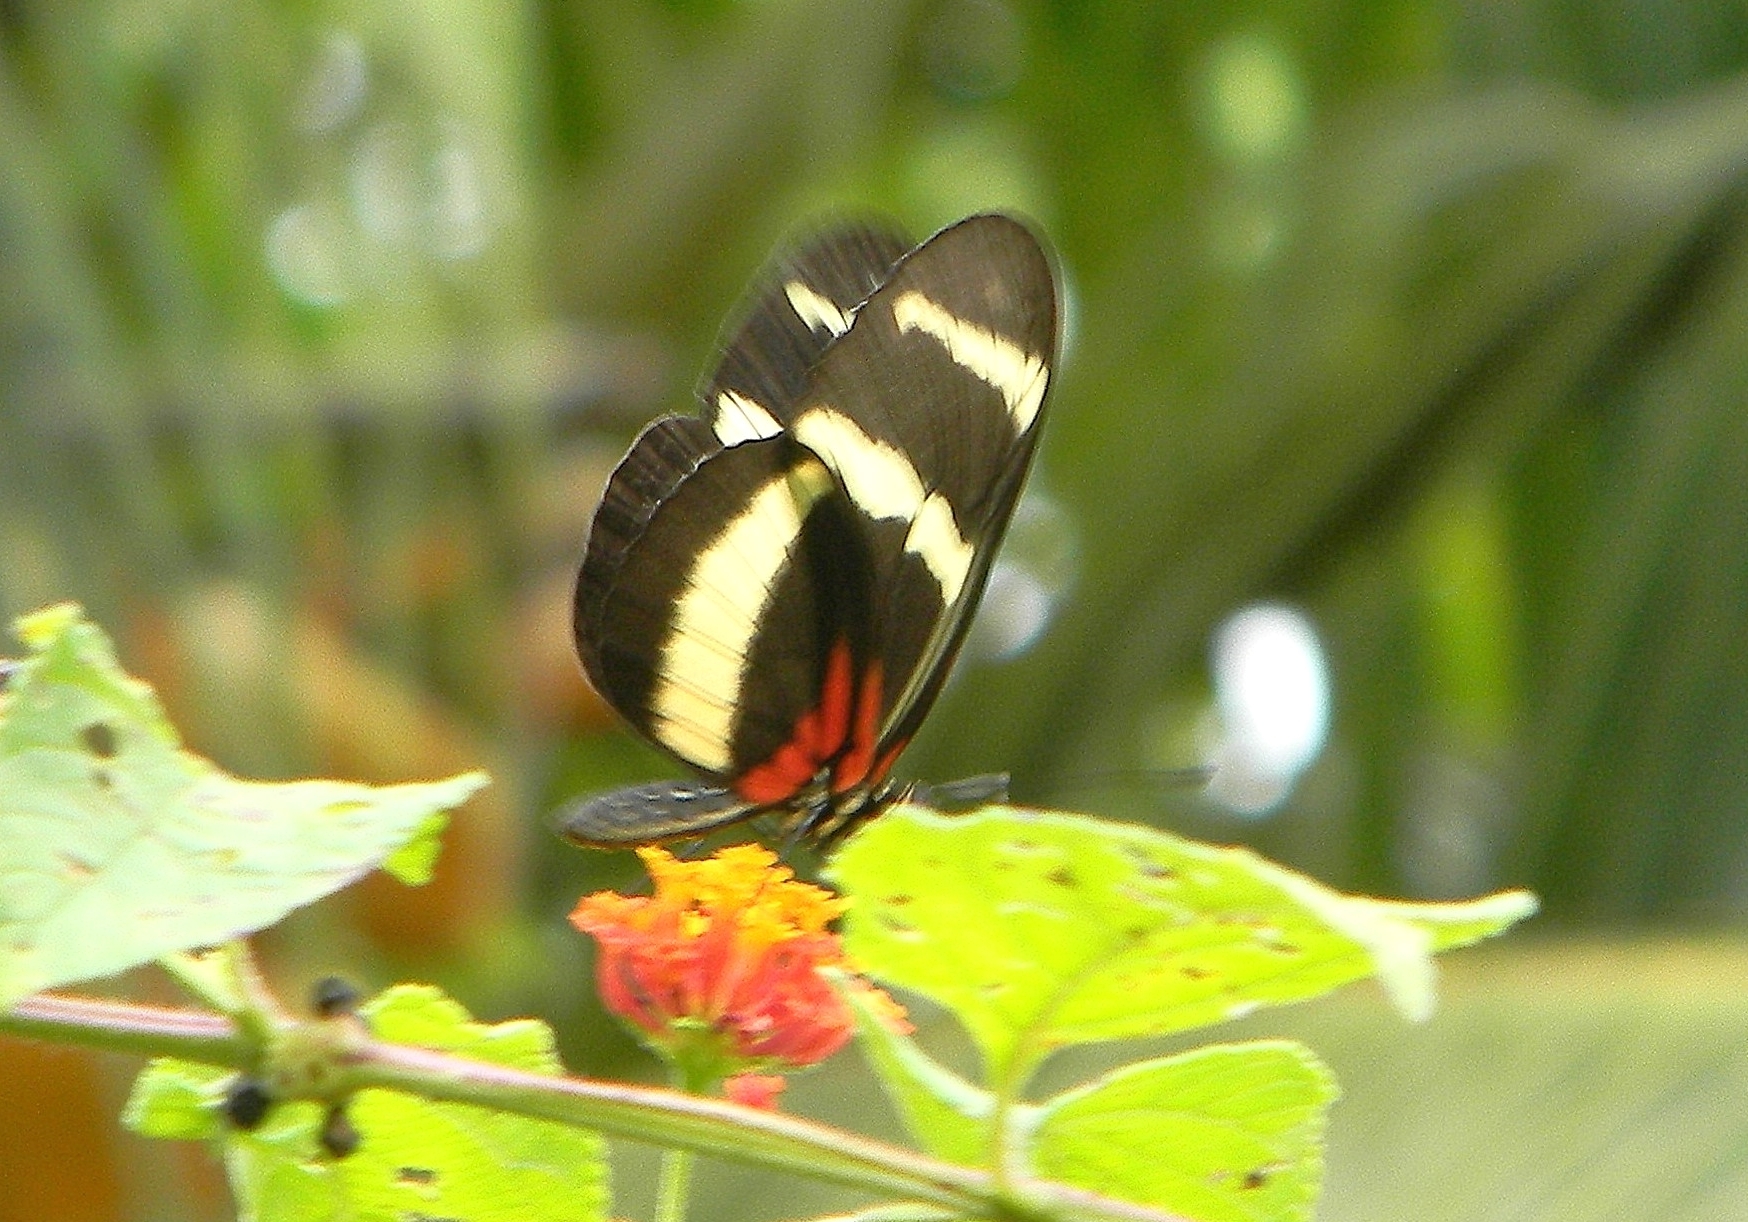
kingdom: Animalia
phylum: Arthropoda
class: Insecta
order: Lepidoptera
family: Nymphalidae
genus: Heliconius
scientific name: Heliconius hewitsoni
